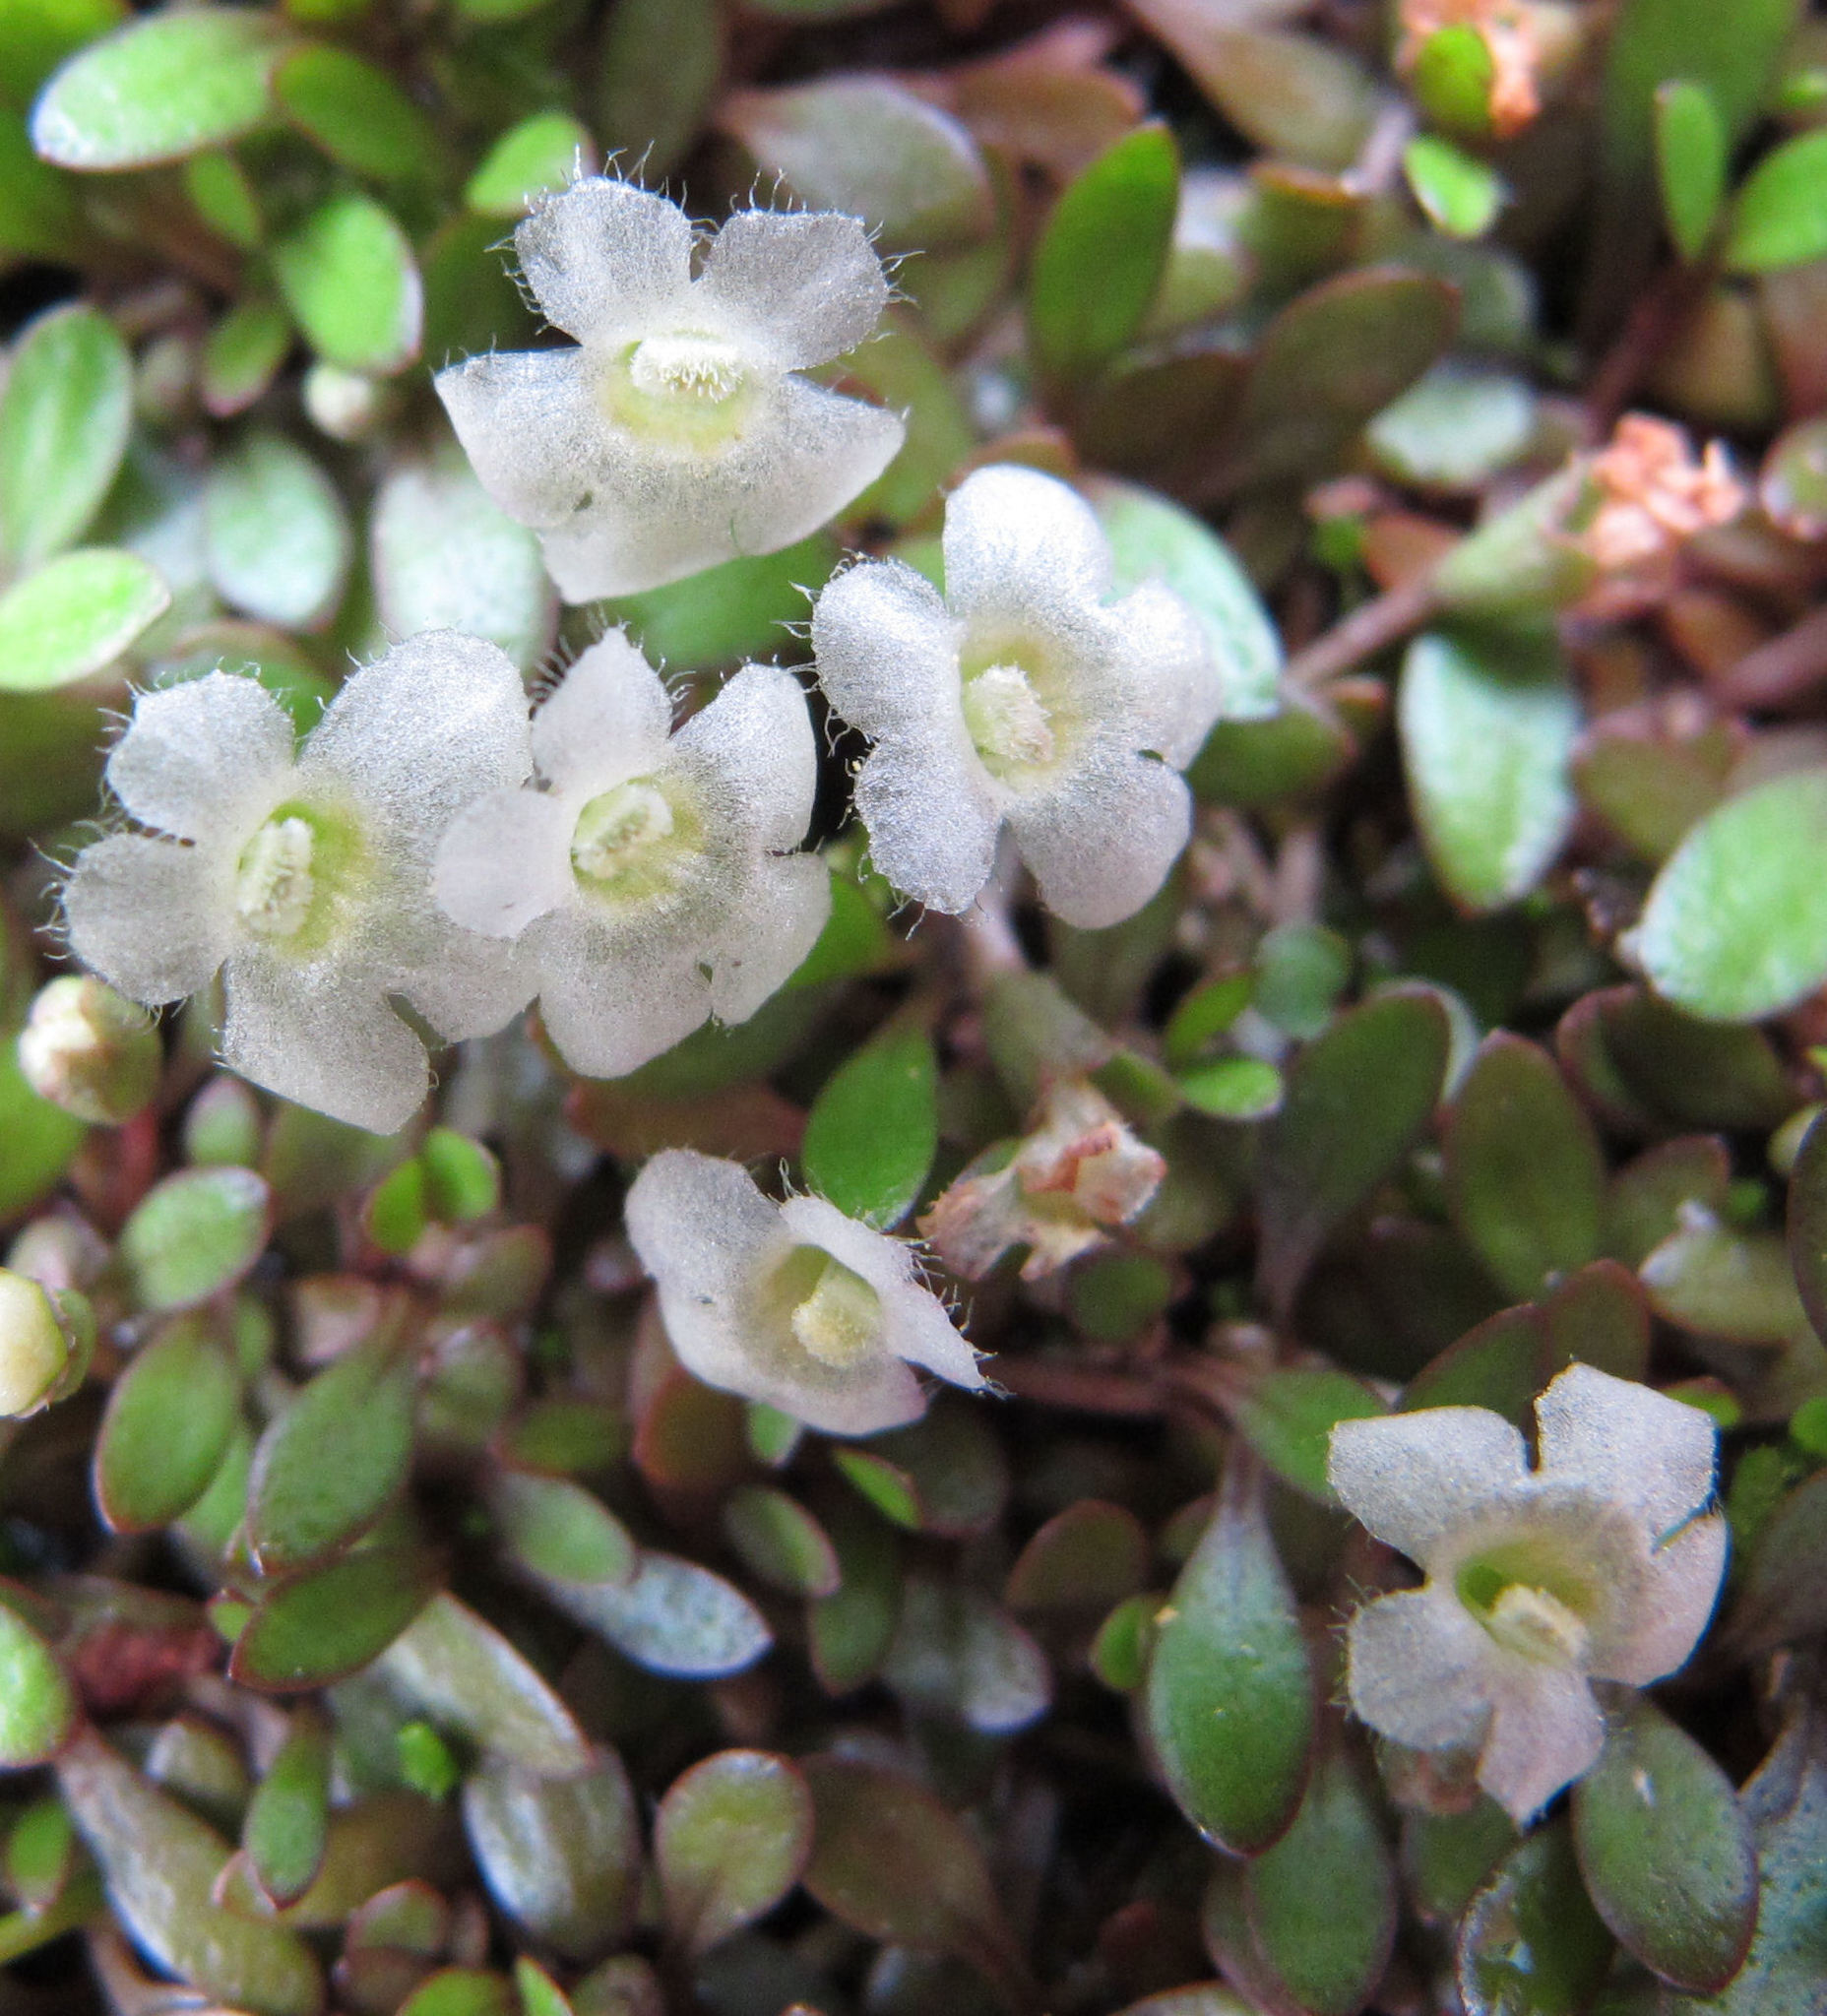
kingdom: Plantae
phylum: Tracheophyta
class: Magnoliopsida
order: Lamiales
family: Phrymaceae
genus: Glossostigma
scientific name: Glossostigma elatinoides
